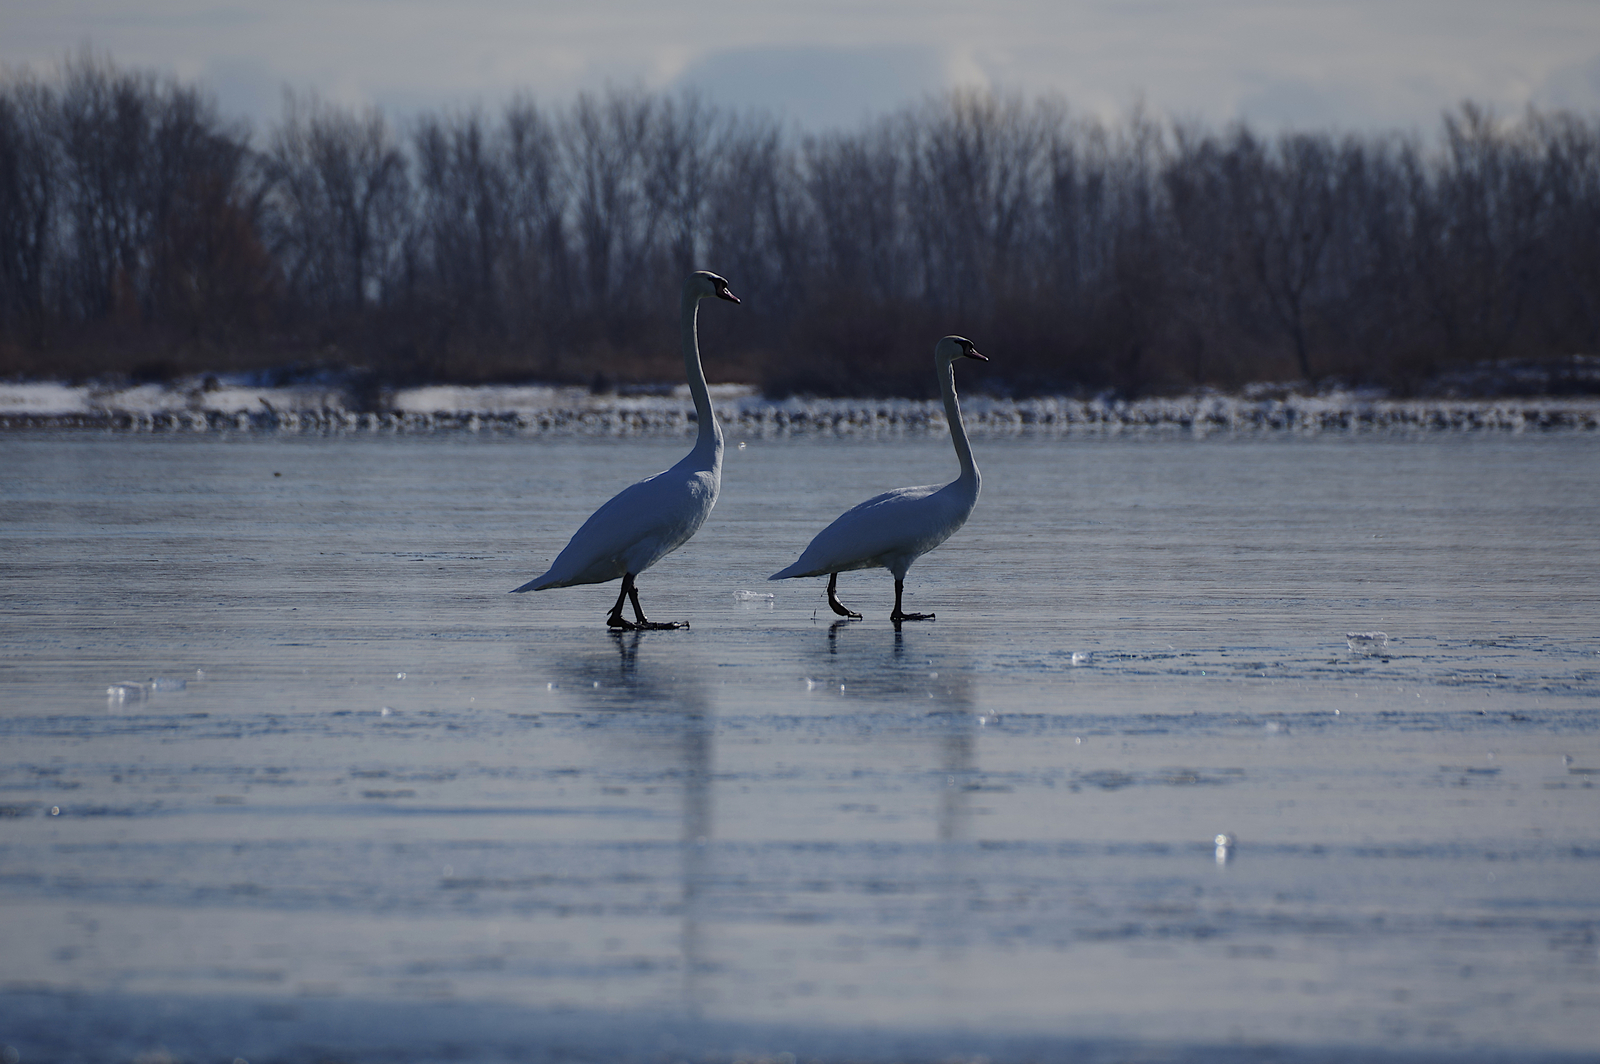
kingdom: Animalia
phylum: Chordata
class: Aves
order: Anseriformes
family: Anatidae
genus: Cygnus
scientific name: Cygnus olor
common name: Mute swan
